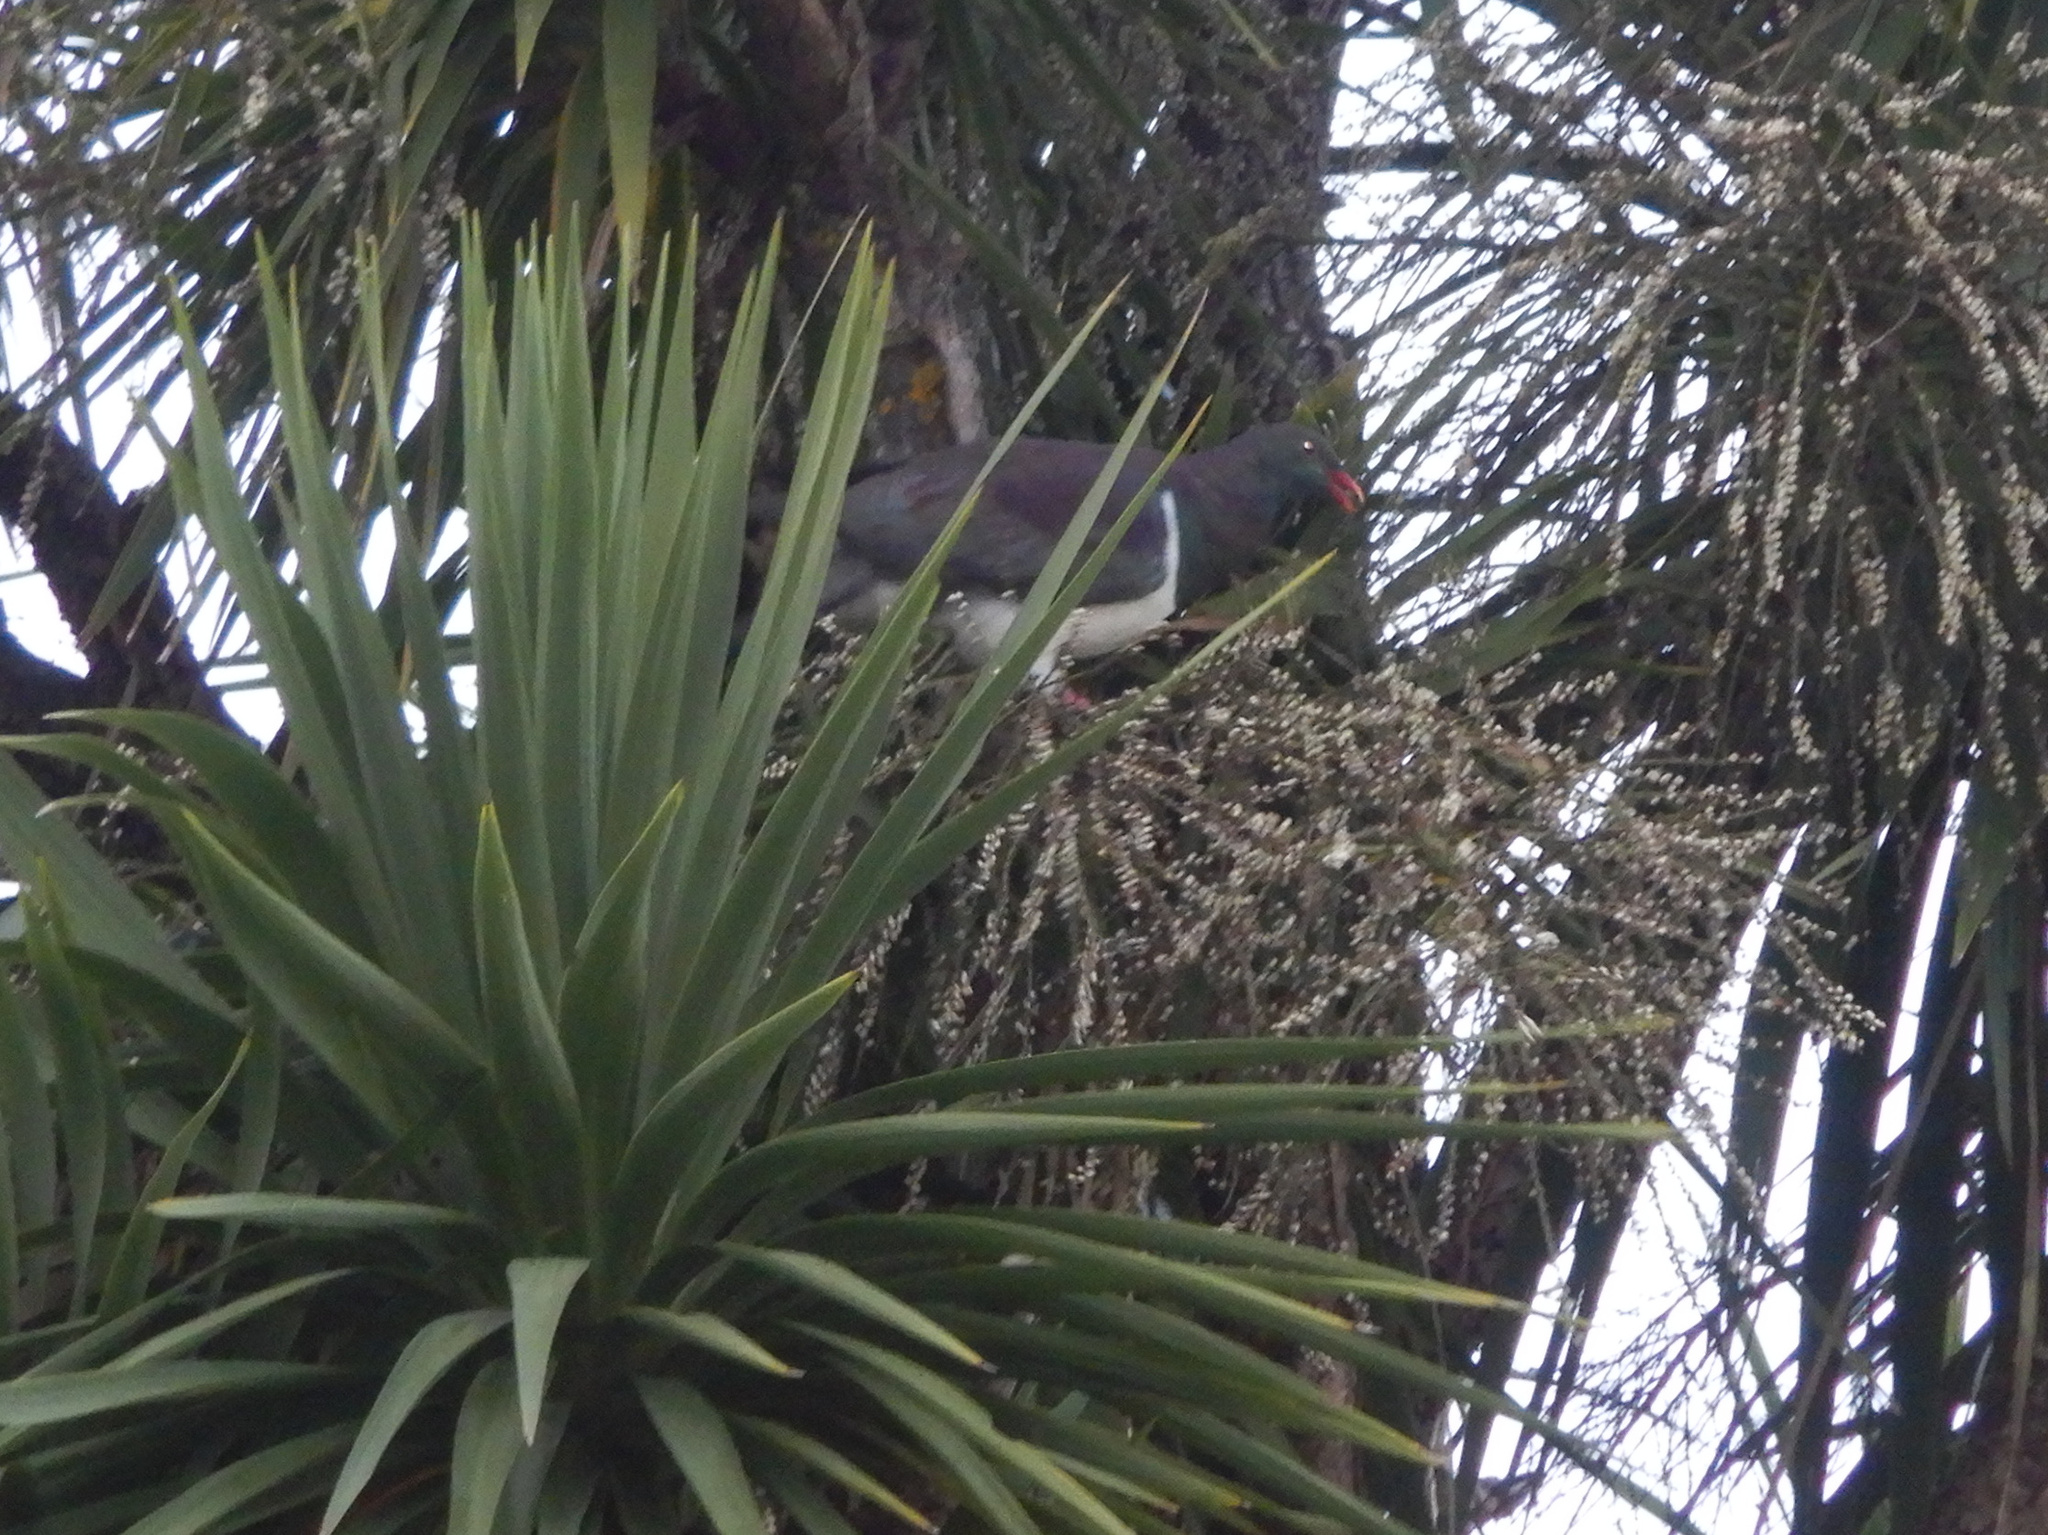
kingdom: Animalia
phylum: Chordata
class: Aves
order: Columbiformes
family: Columbidae
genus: Hemiphaga
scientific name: Hemiphaga novaeseelandiae
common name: New zealand pigeon
